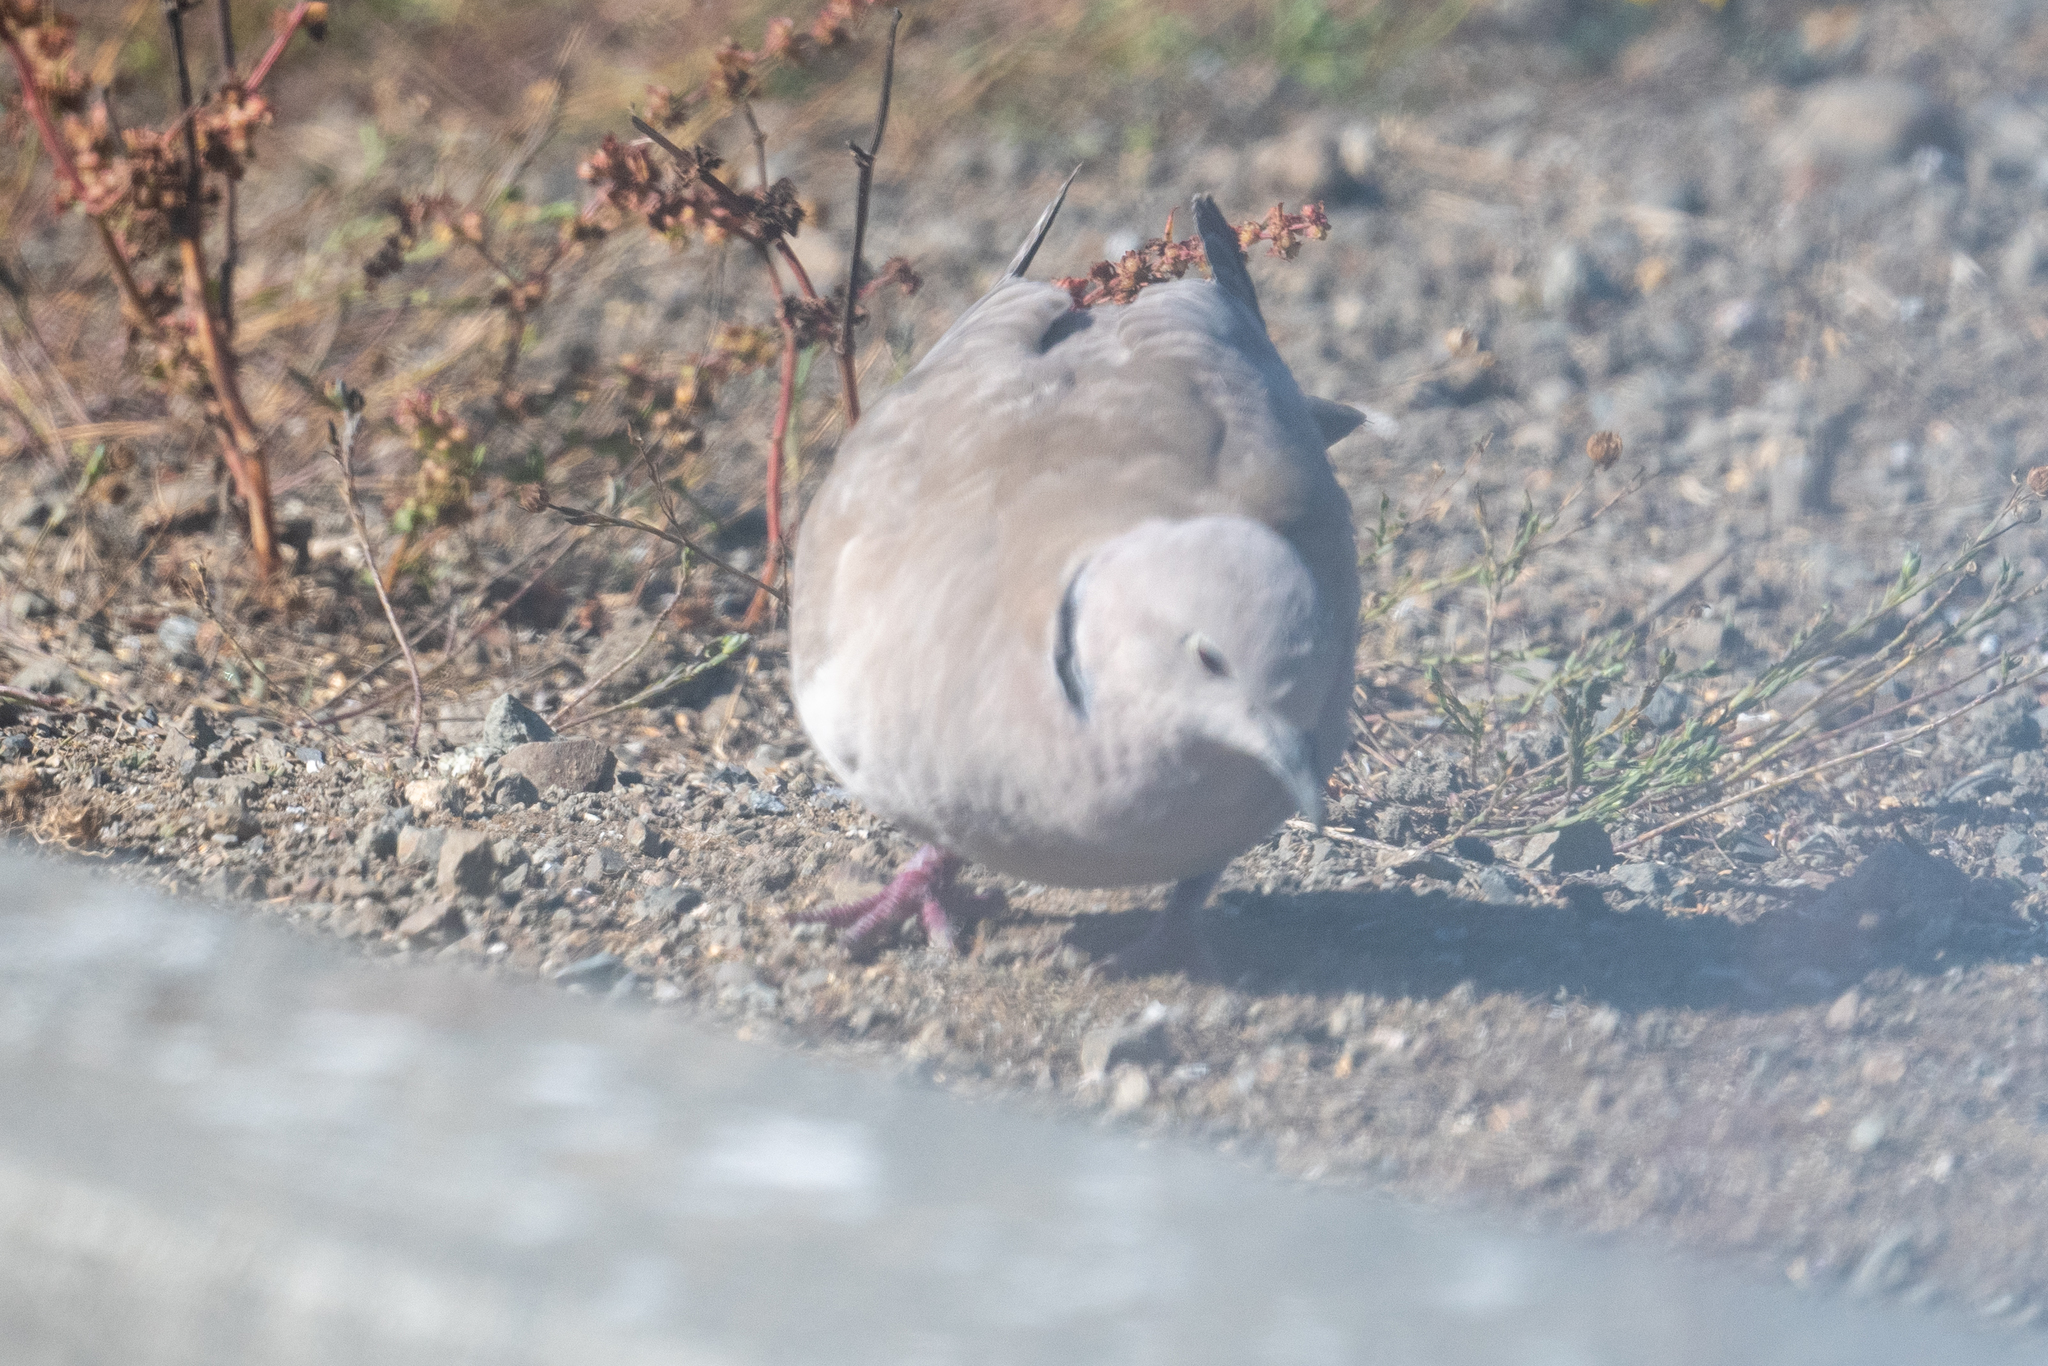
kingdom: Animalia
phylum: Chordata
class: Aves
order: Columbiformes
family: Columbidae
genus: Streptopelia
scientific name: Streptopelia decaocto
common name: Eurasian collared dove
